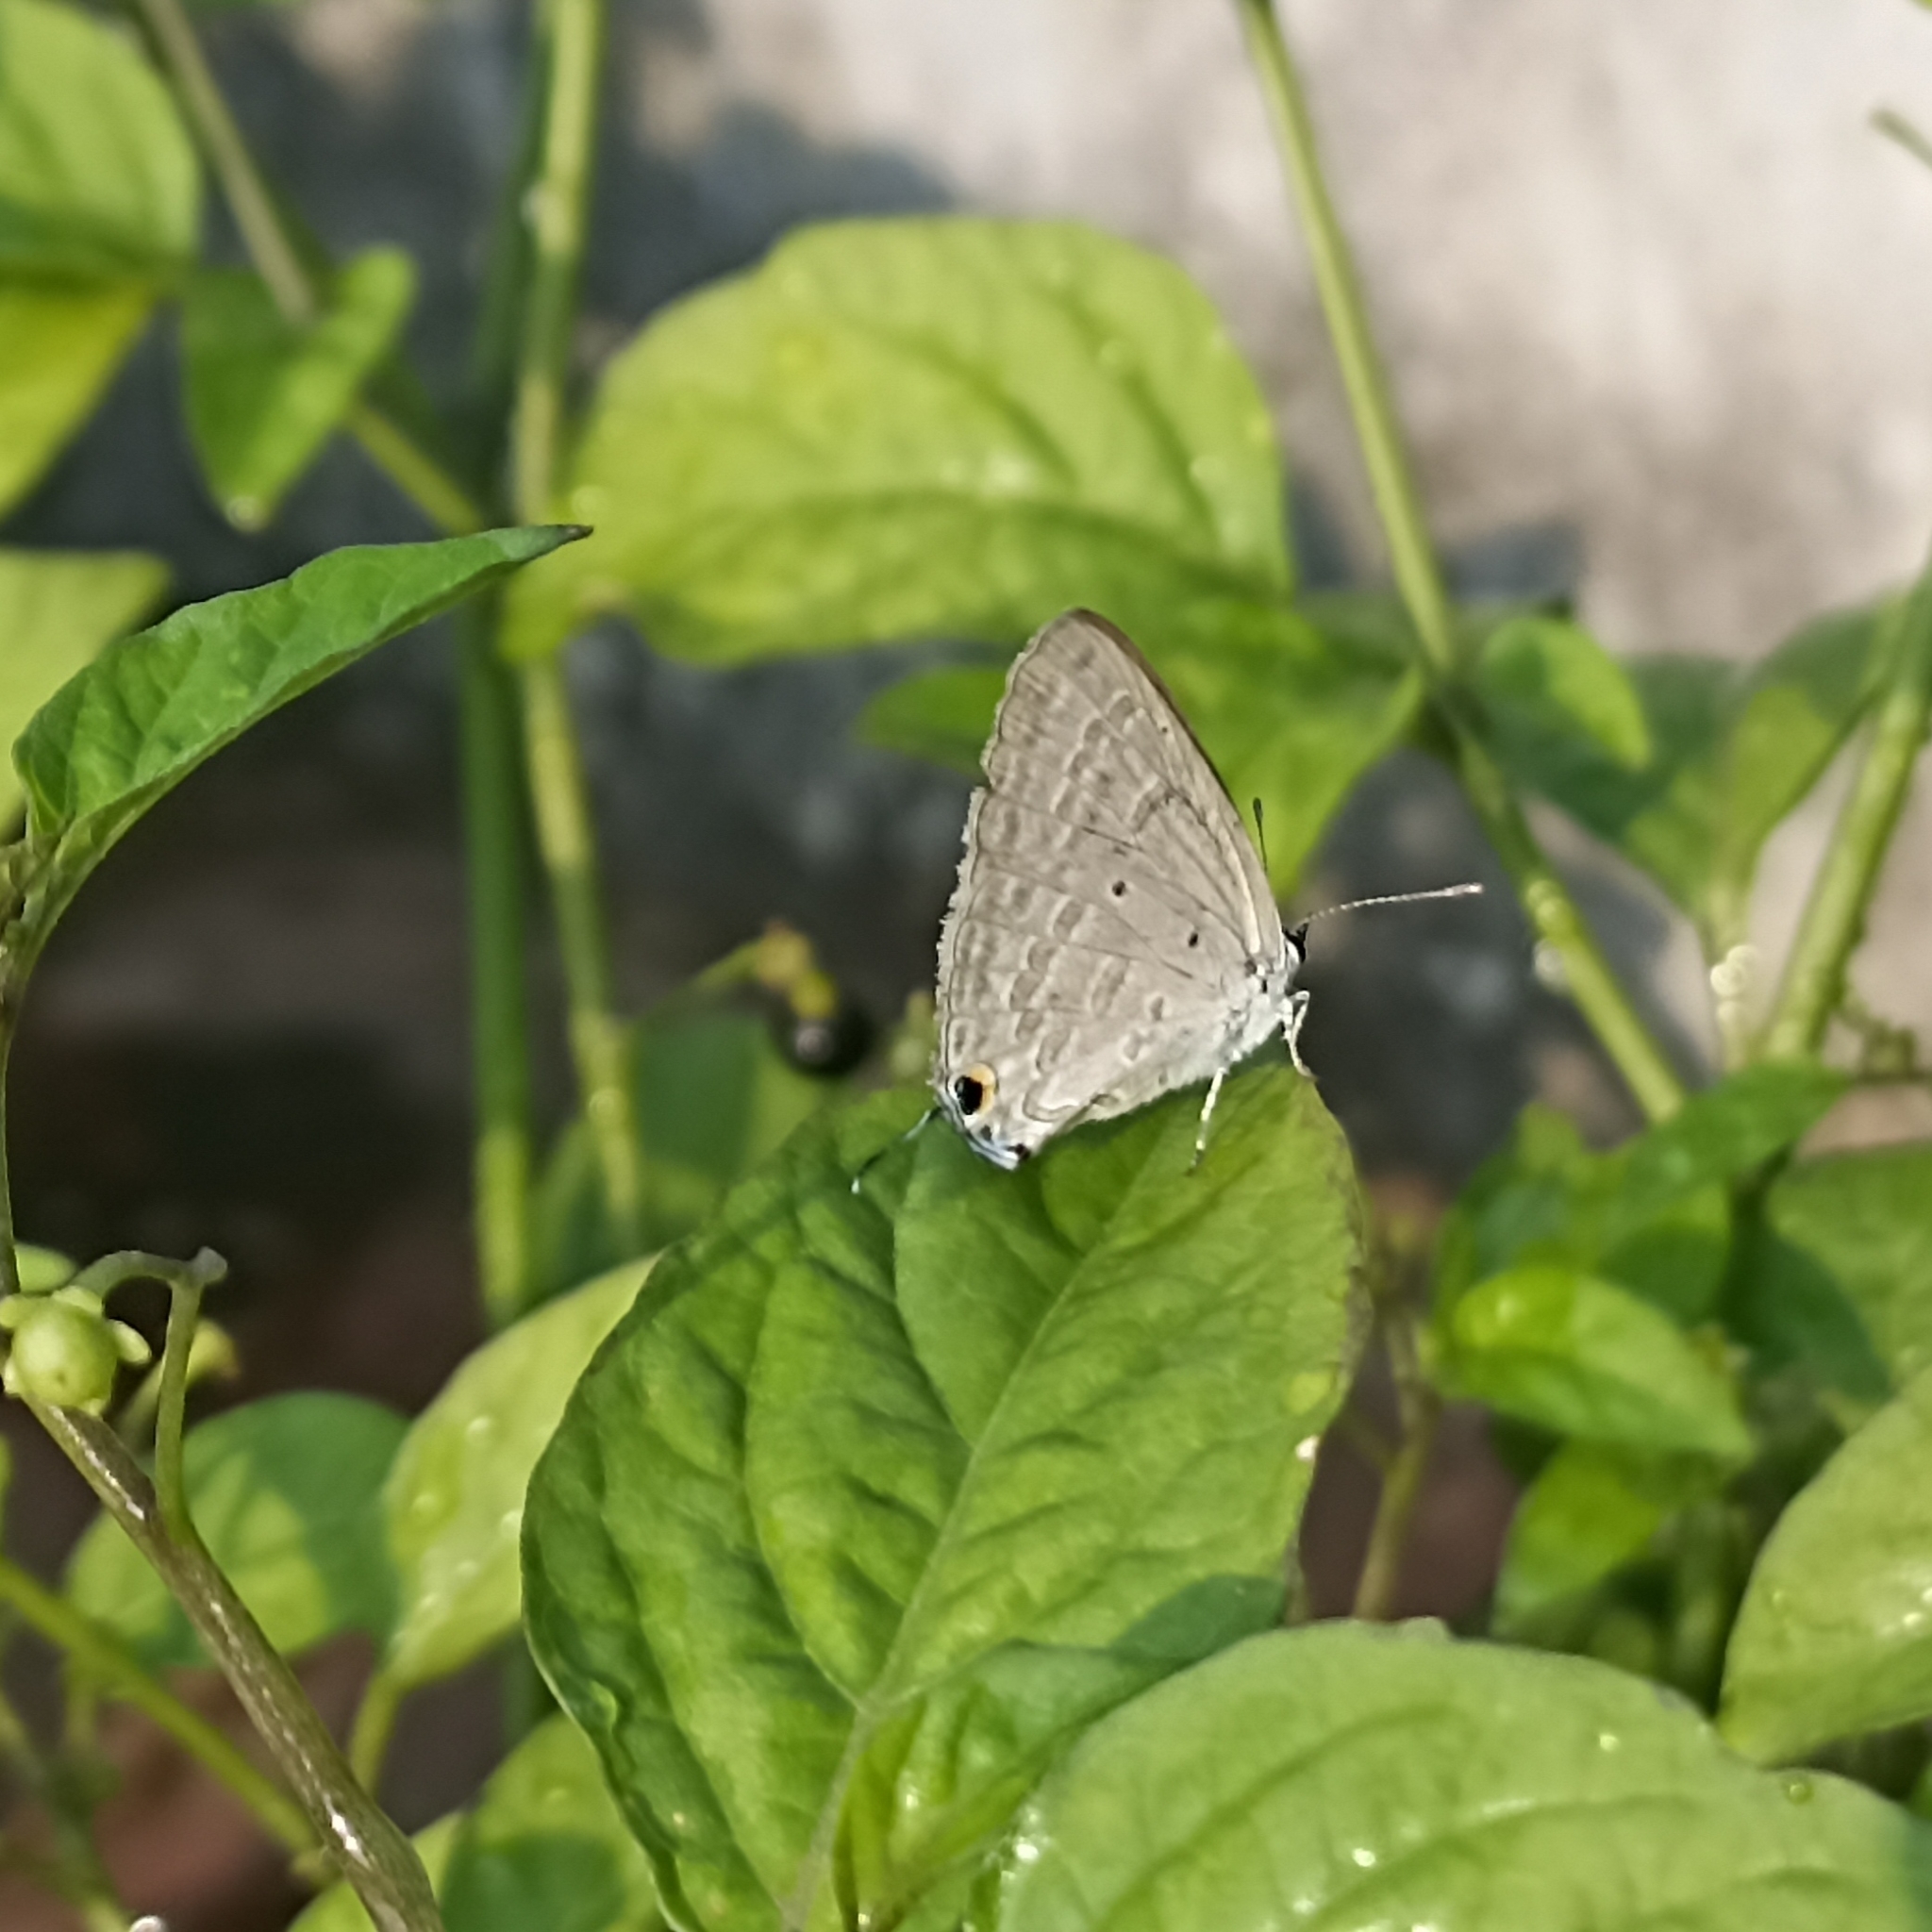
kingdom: Animalia
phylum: Arthropoda
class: Insecta
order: Lepidoptera
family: Lycaenidae
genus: Catochrysops
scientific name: Catochrysops strabo
